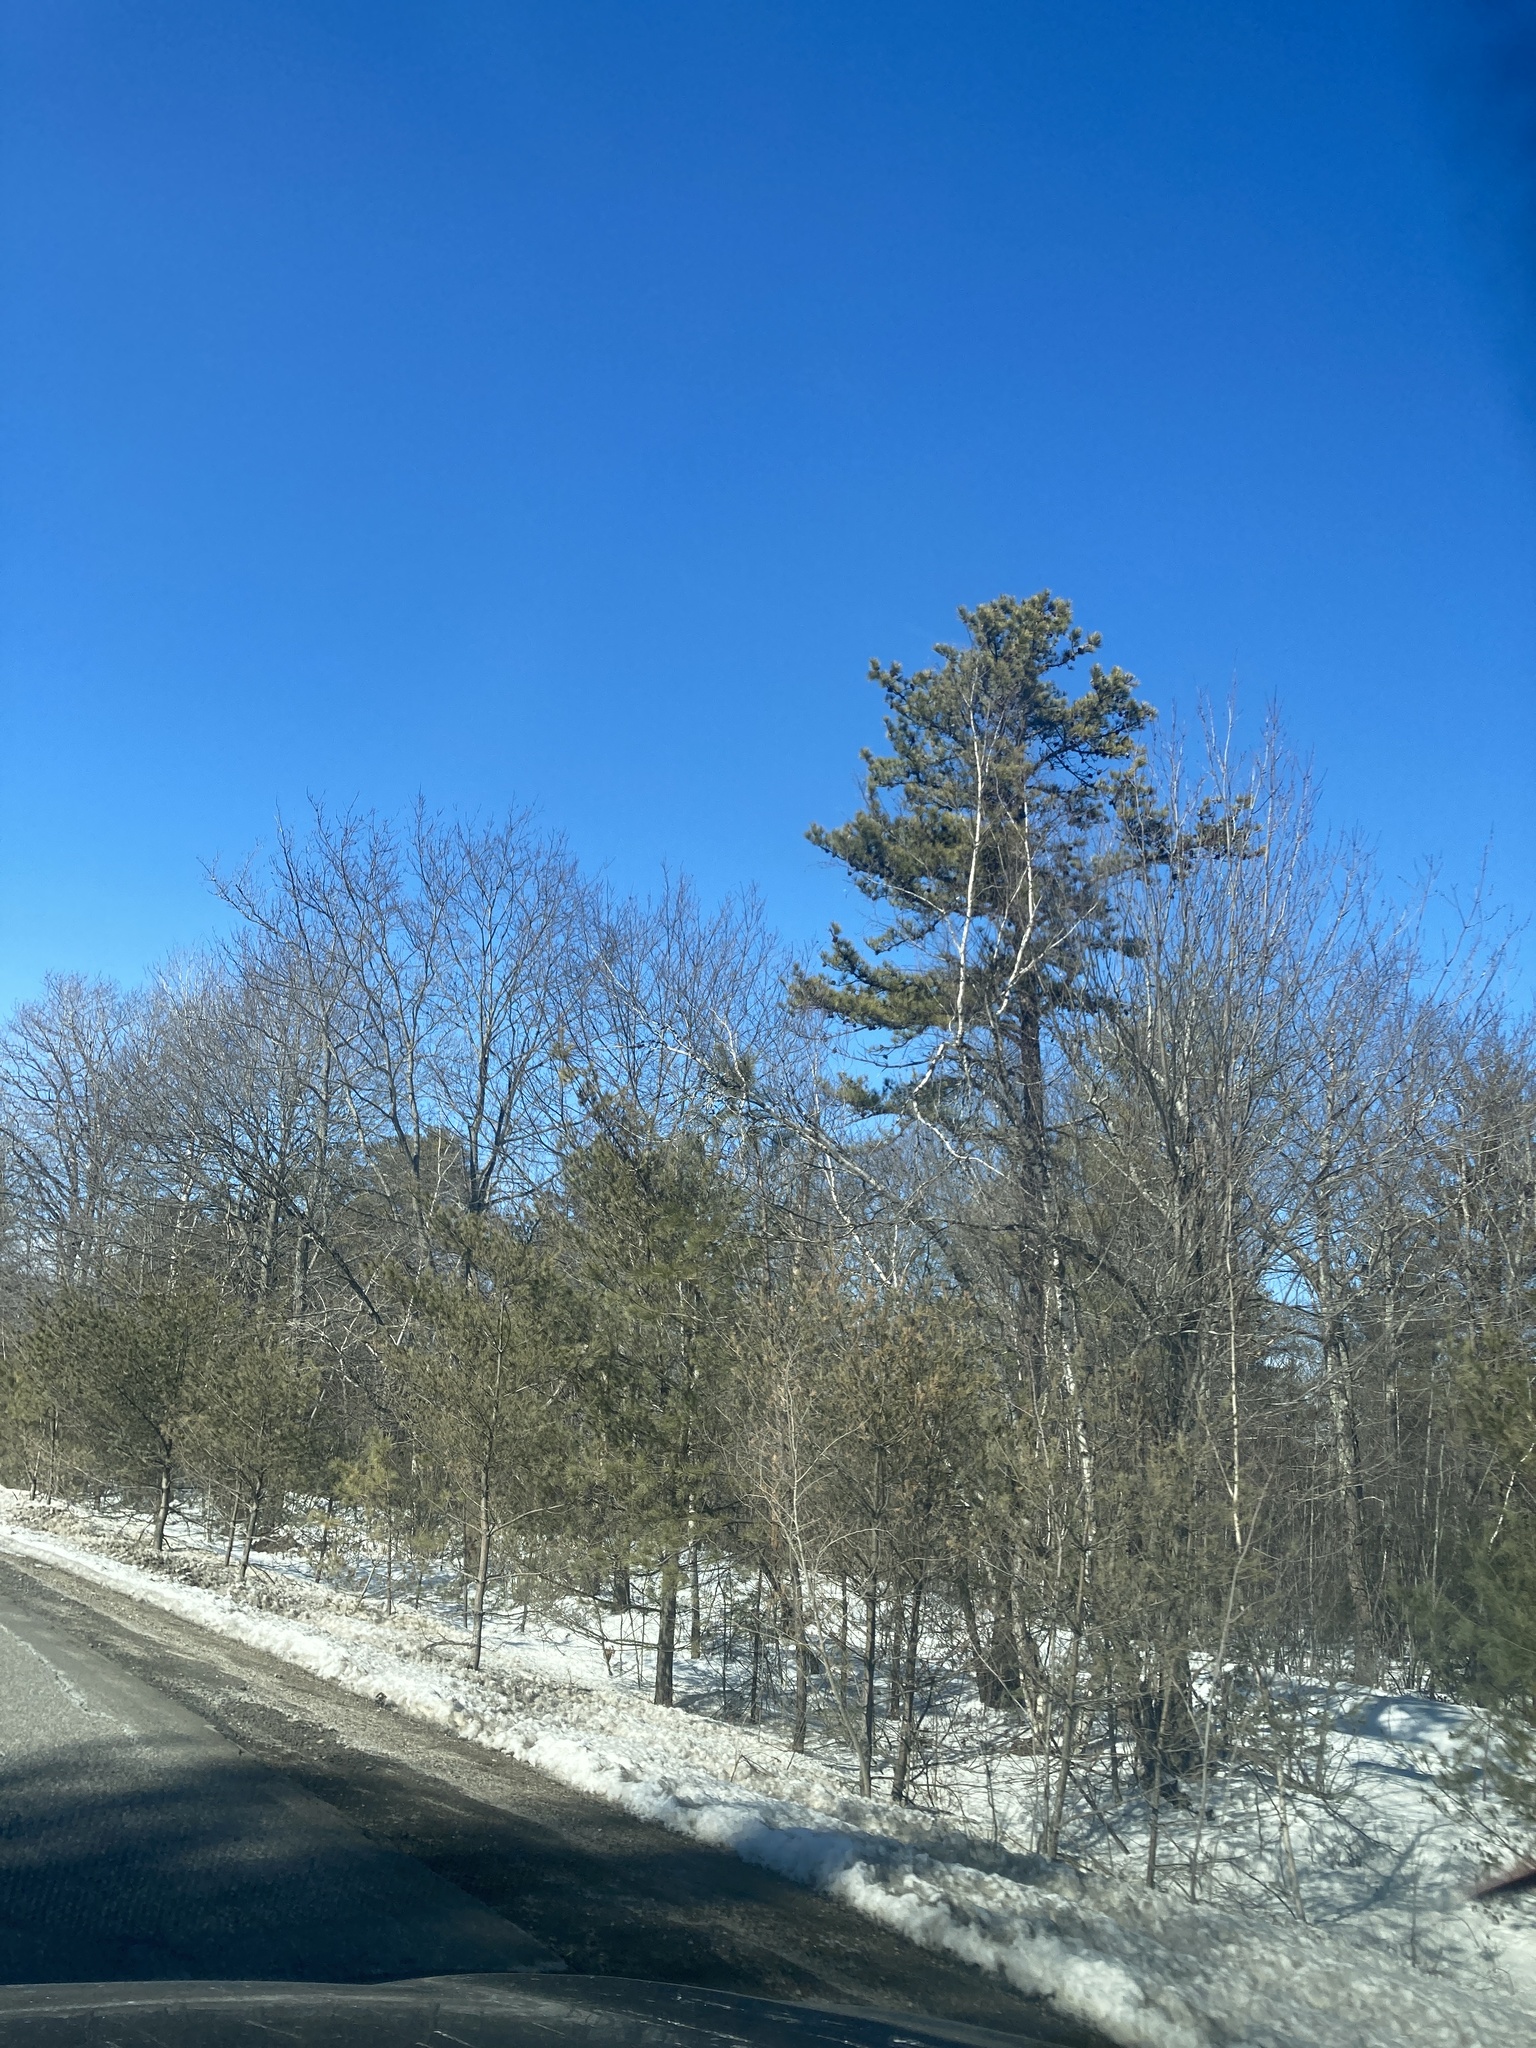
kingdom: Plantae
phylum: Tracheophyta
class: Pinopsida
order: Pinales
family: Pinaceae
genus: Pinus
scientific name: Pinus rigida
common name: Pitch pine
